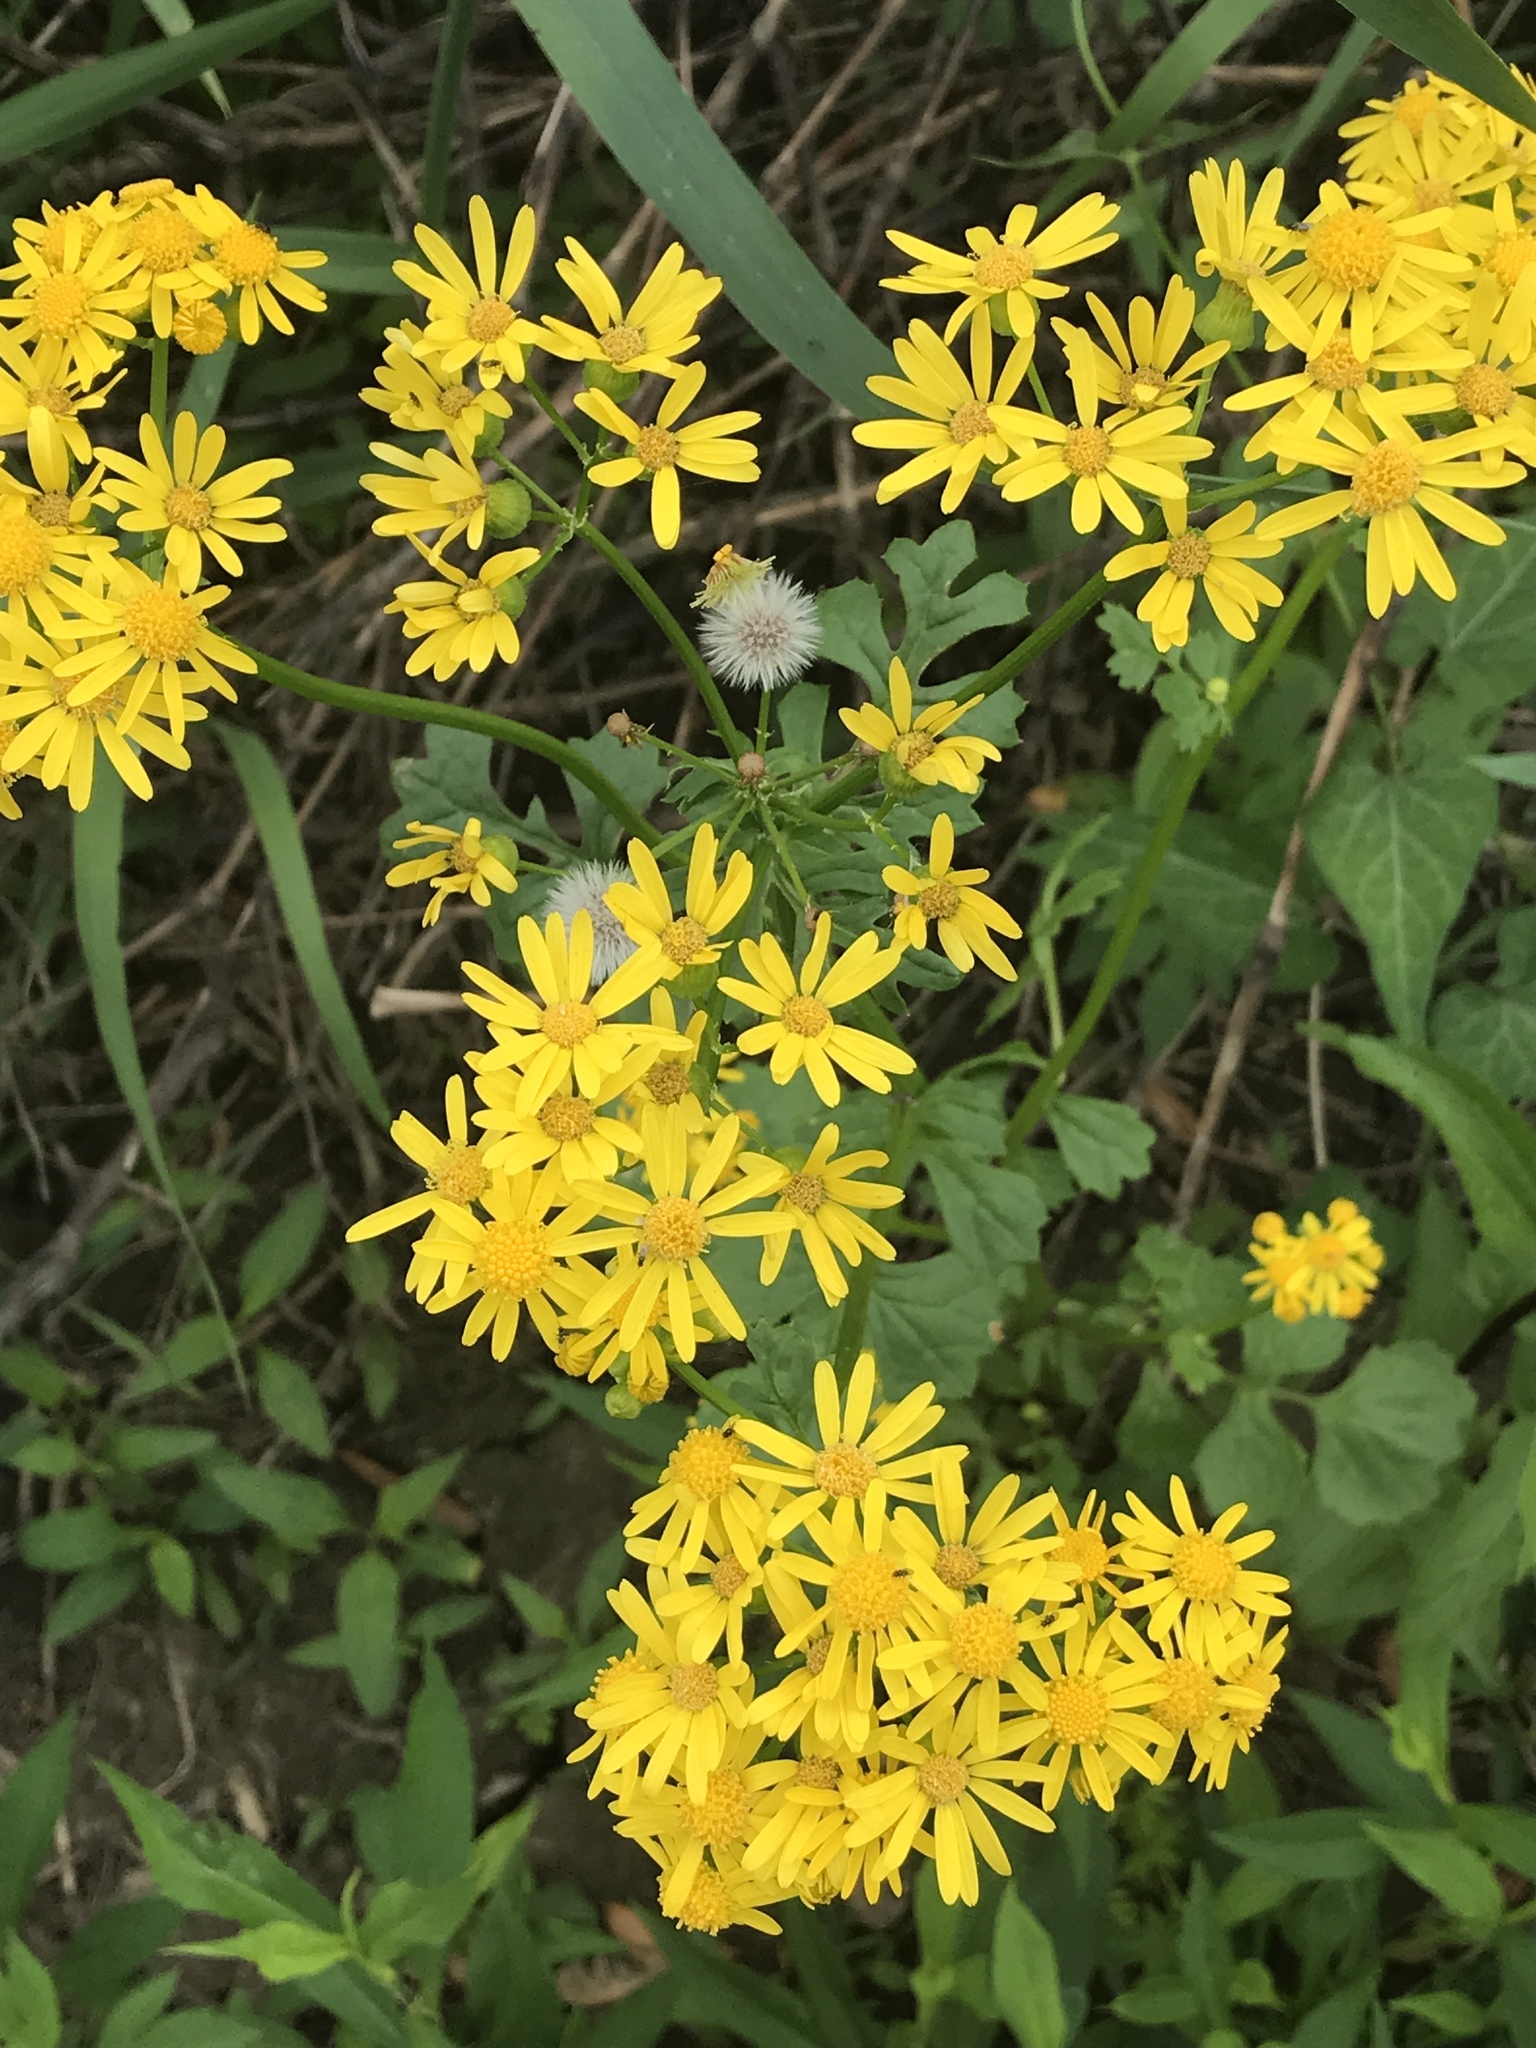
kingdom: Plantae
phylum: Tracheophyta
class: Magnoliopsida
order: Asterales
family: Asteraceae
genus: Packera
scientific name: Packera glabella
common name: Butterweed
